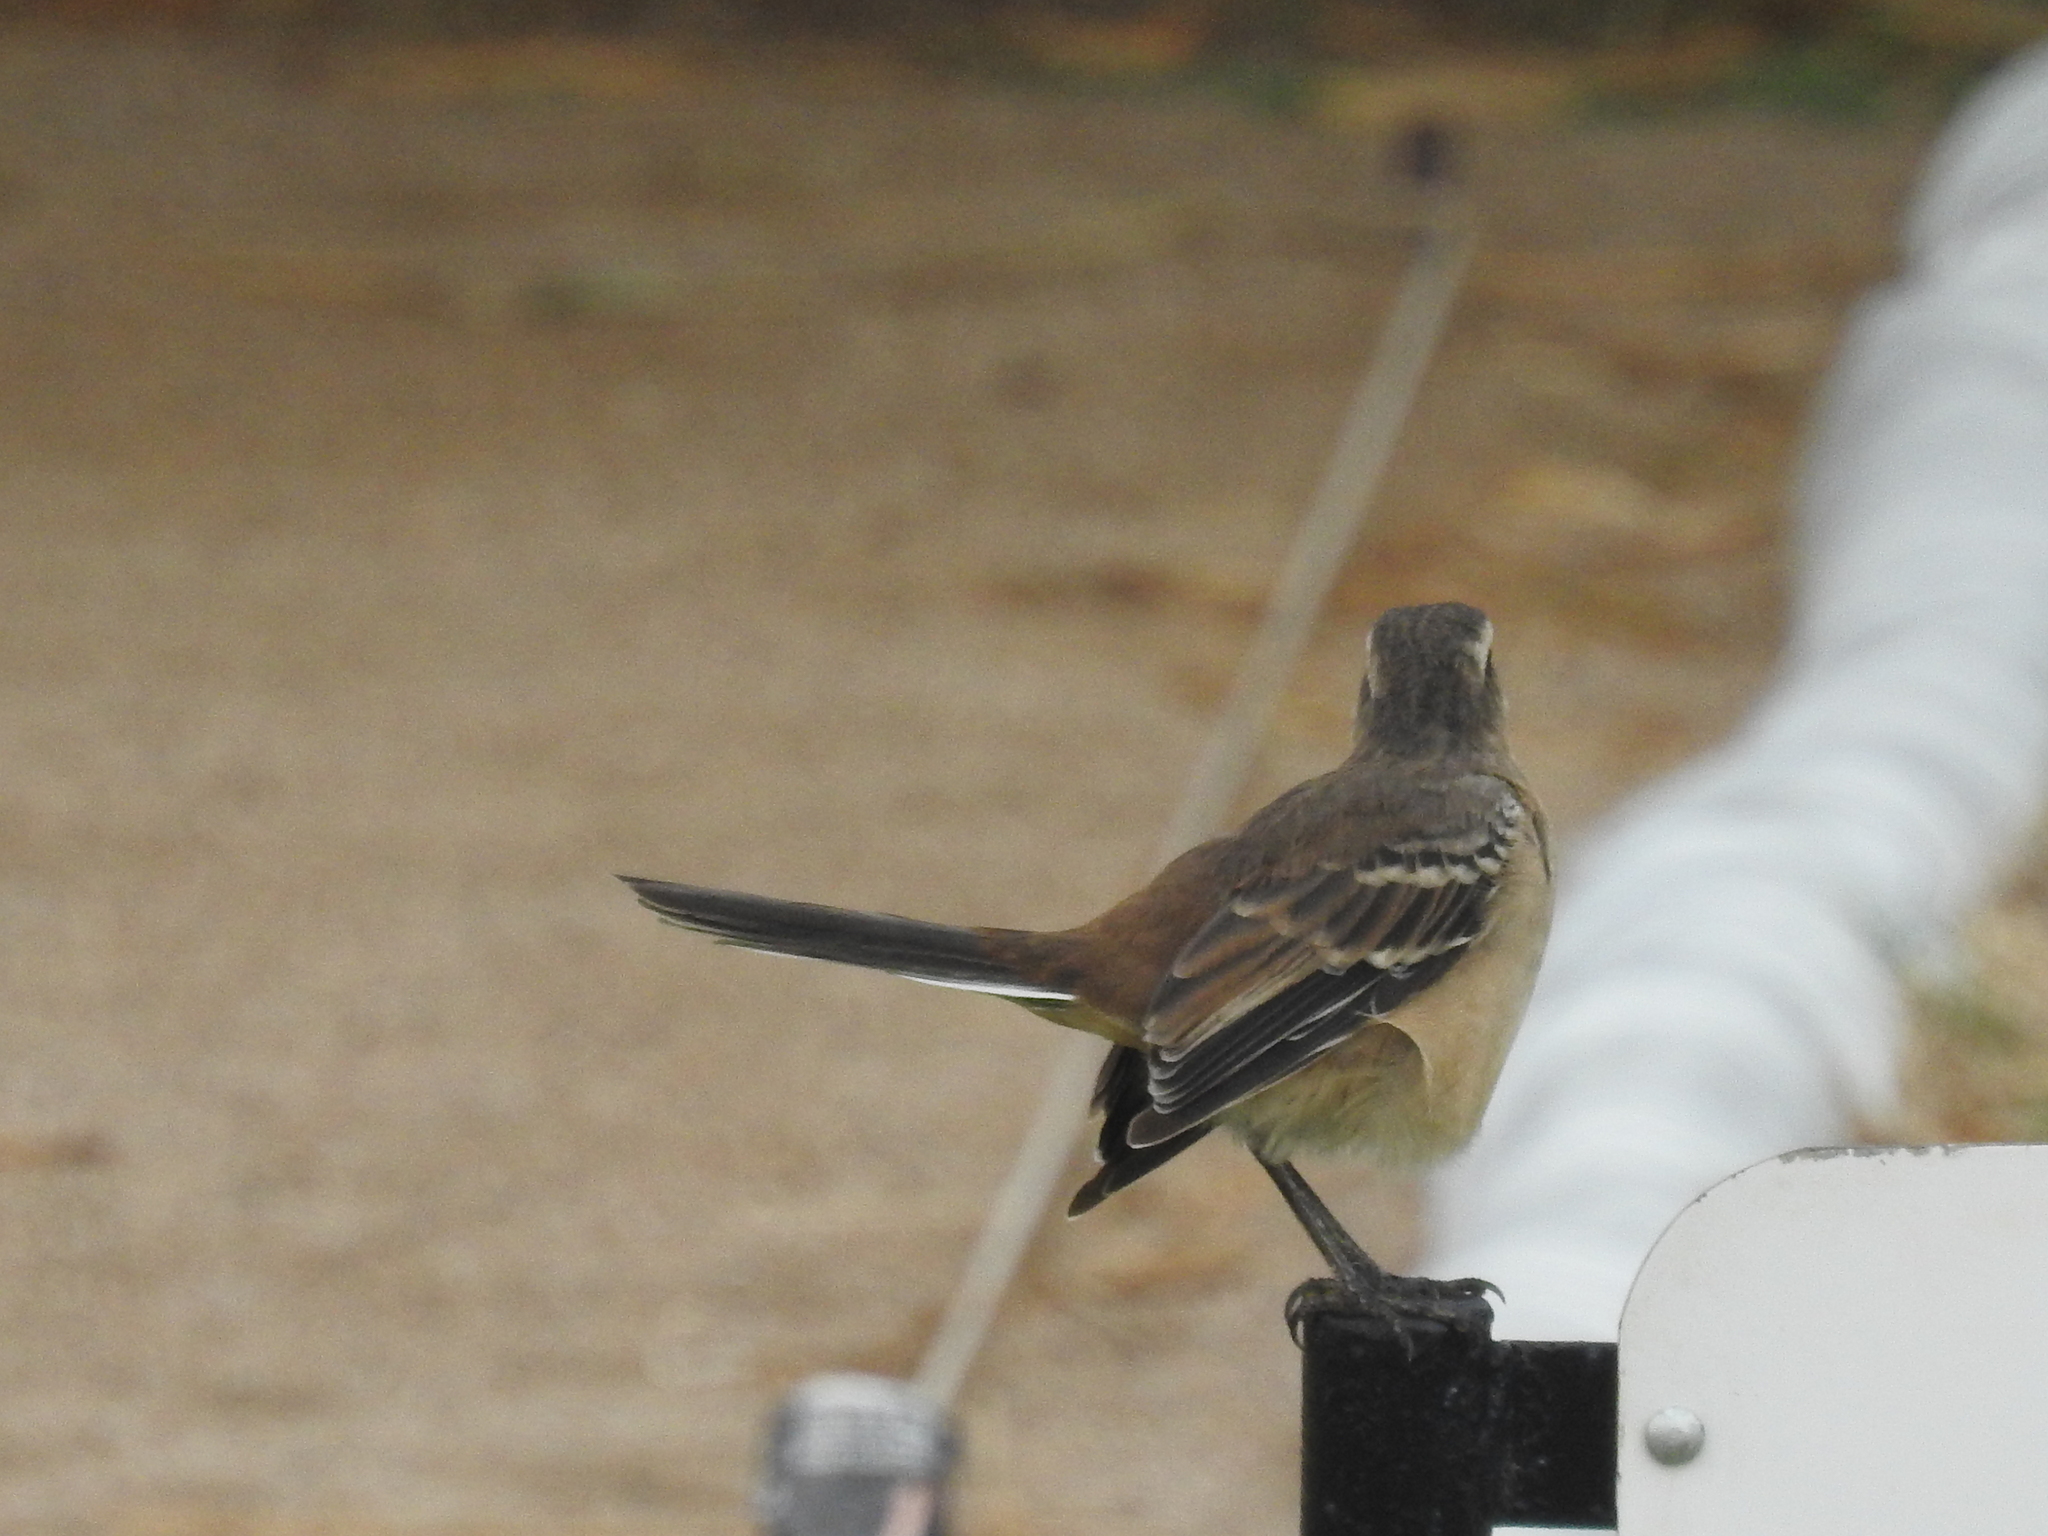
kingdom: Animalia
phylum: Chordata
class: Aves
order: Passeriformes
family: Mimidae
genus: Mimus
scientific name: Mimus saturninus
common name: Chalk-browed mockingbird
